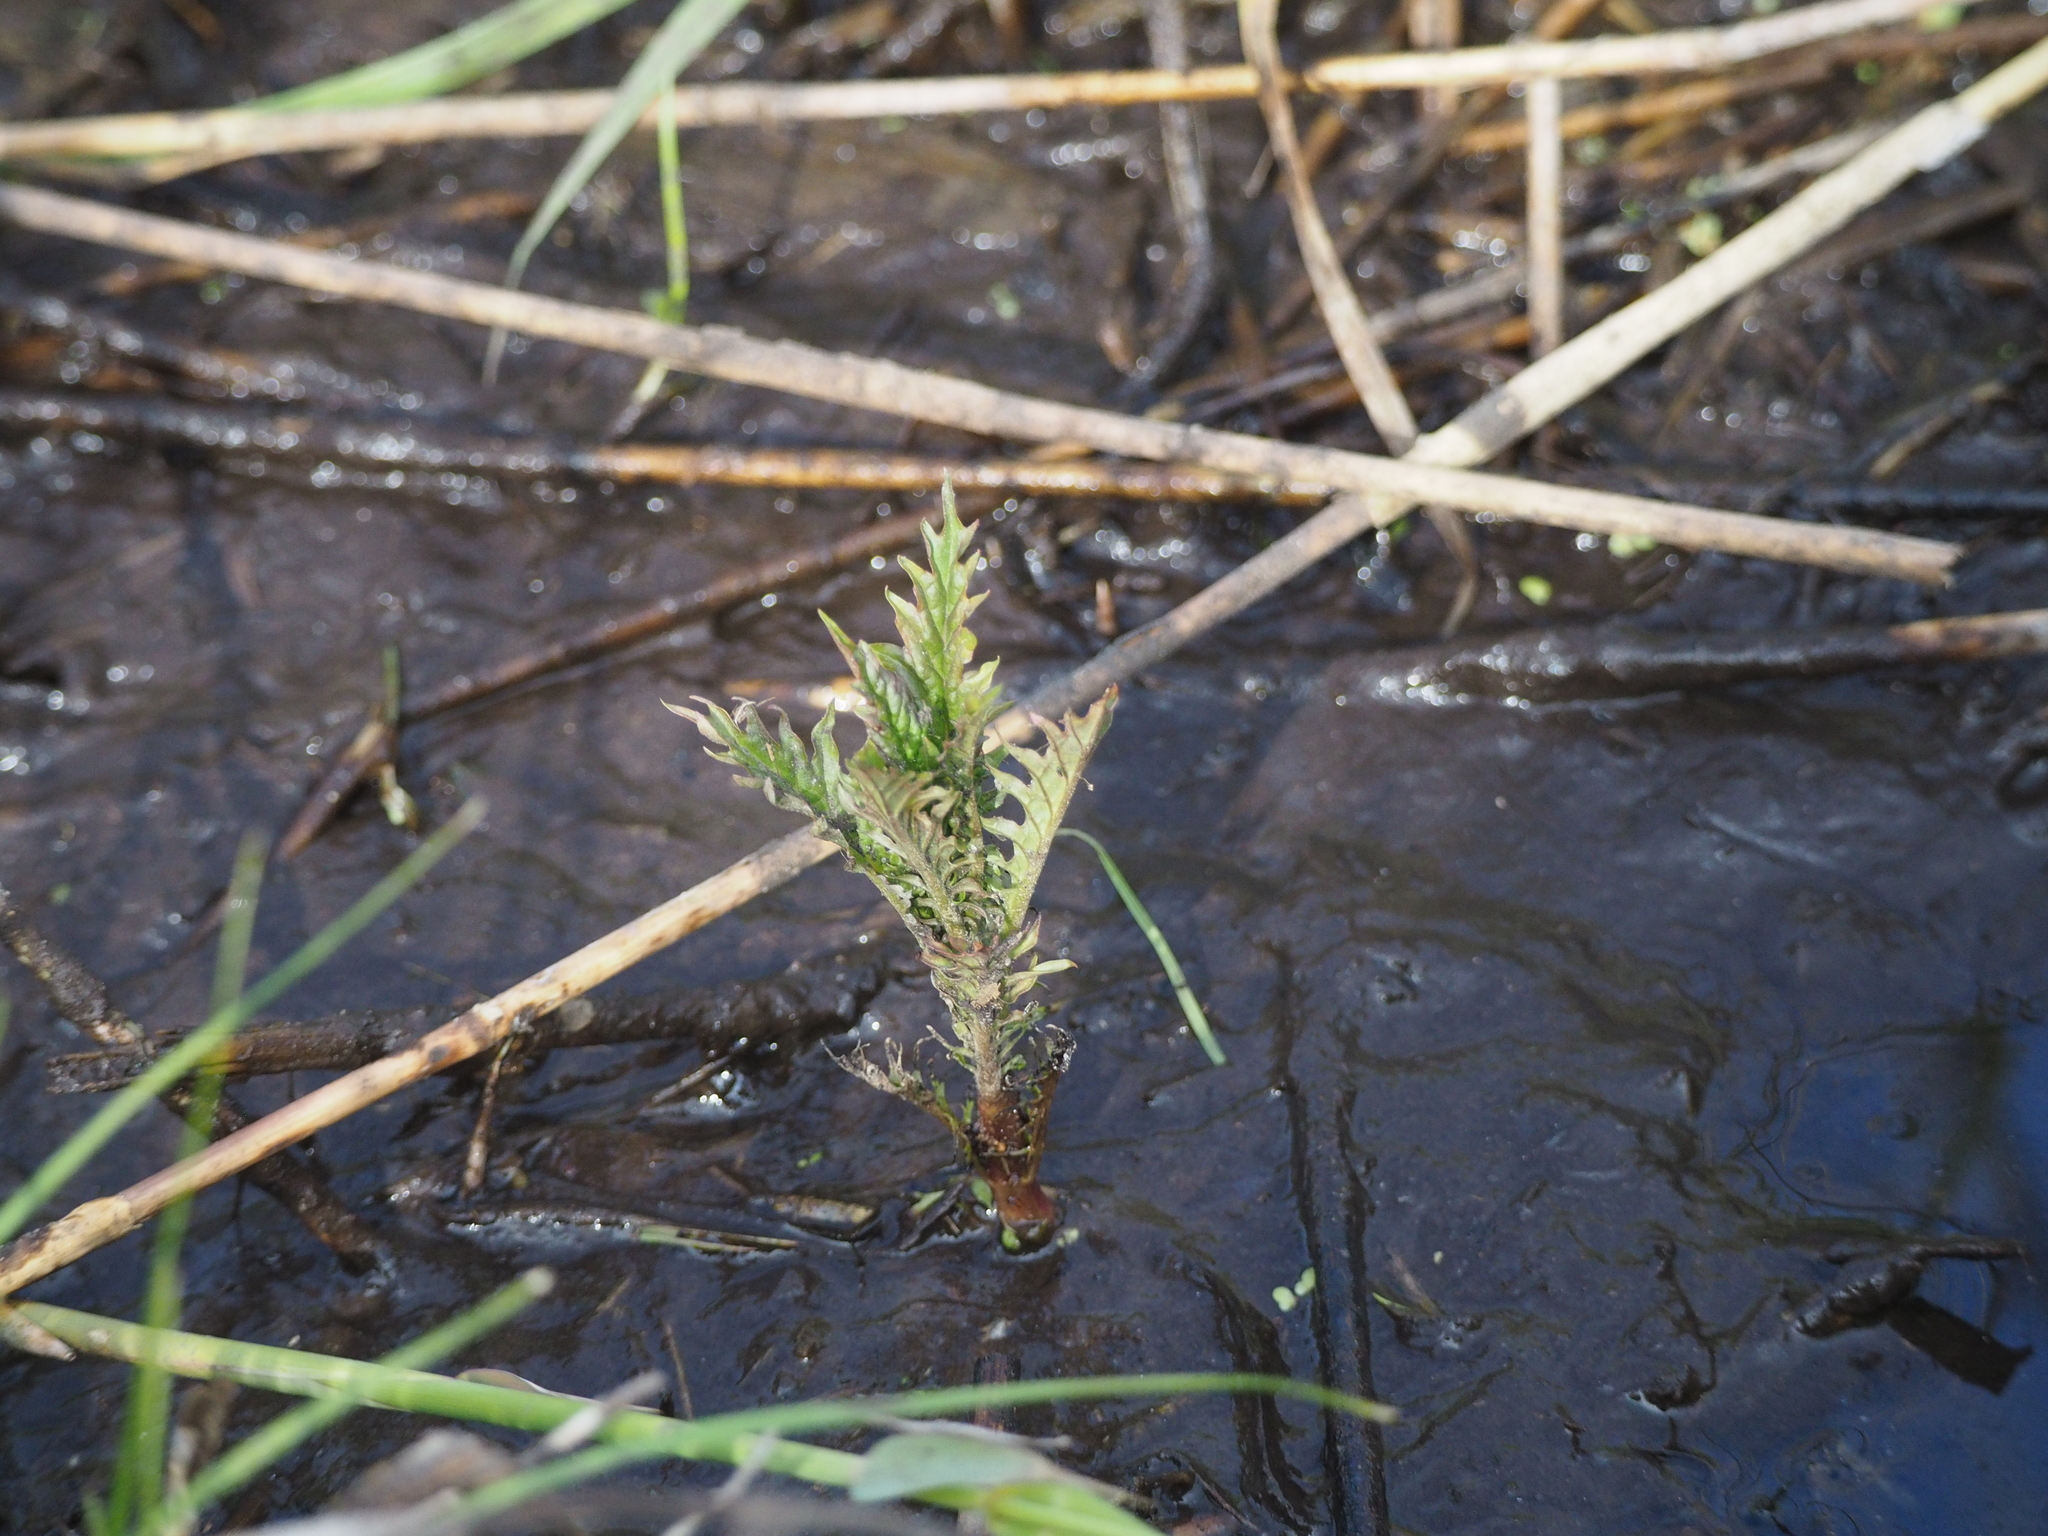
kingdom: Plantae
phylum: Tracheophyta
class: Magnoliopsida
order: Lamiales
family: Lamiaceae
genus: Lycopus
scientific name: Lycopus europaeus
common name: European bugleweed
